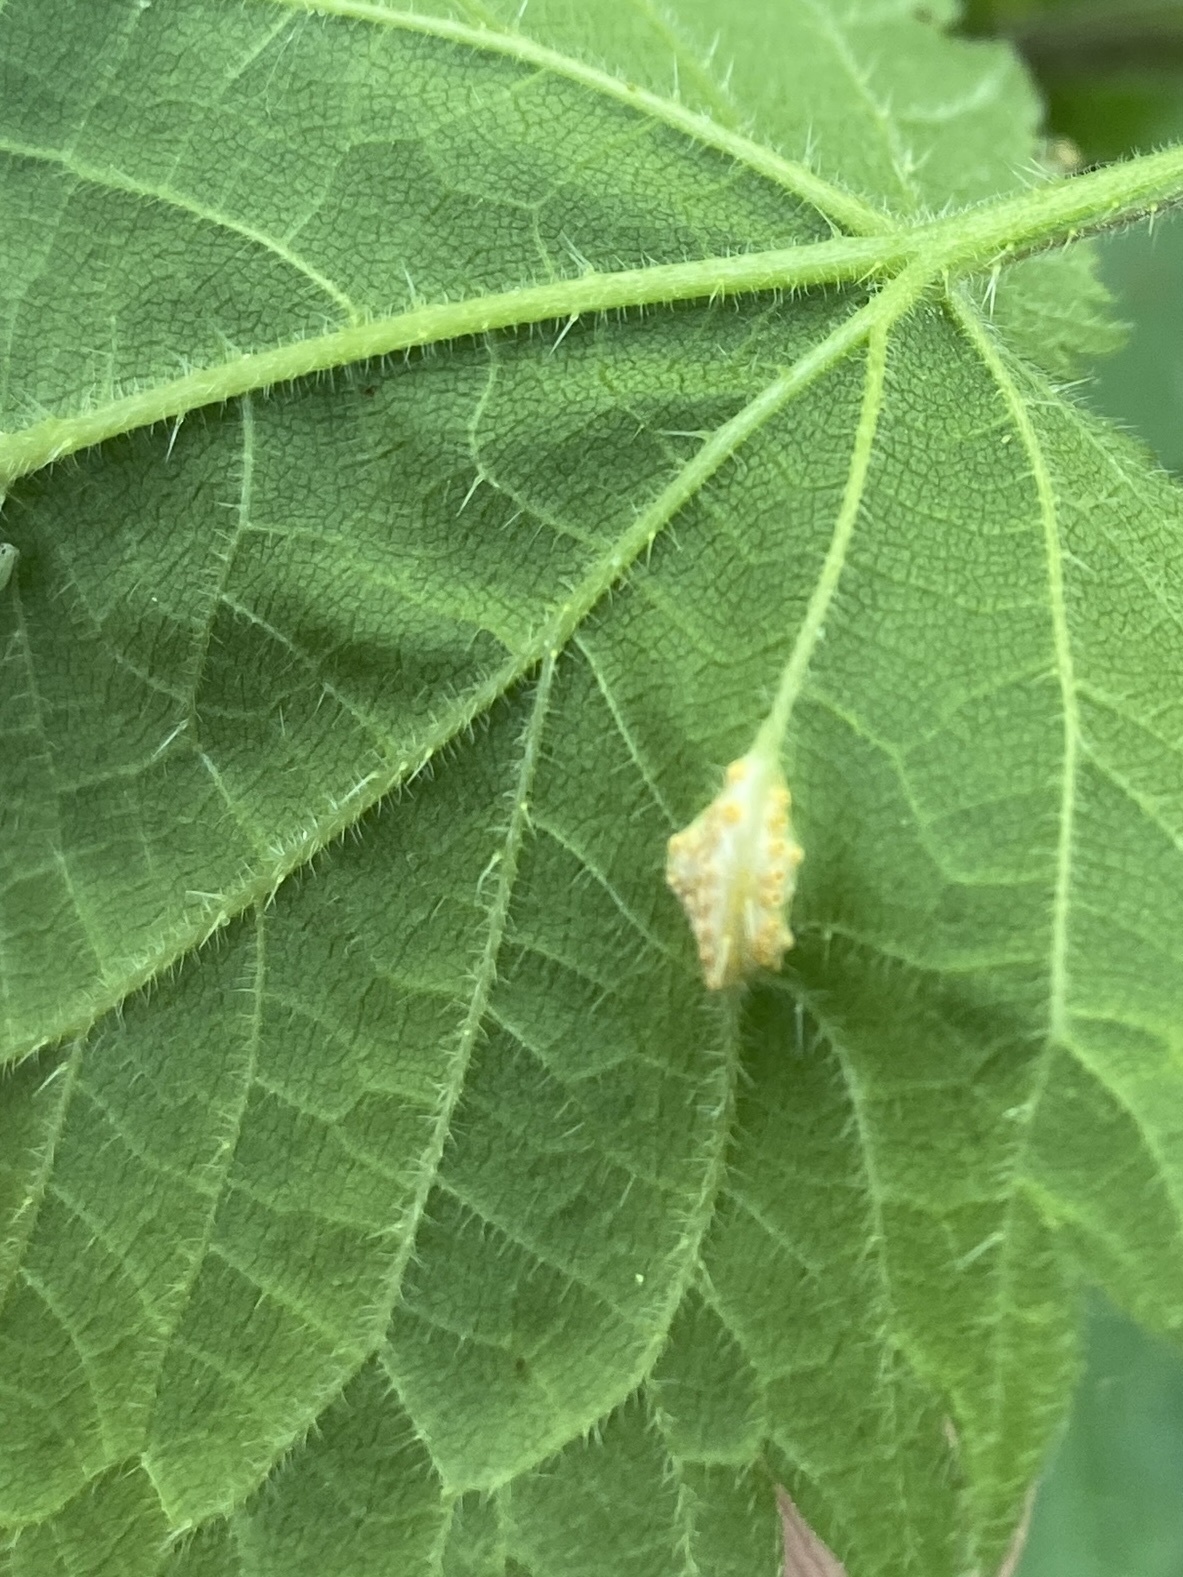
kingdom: Fungi
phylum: Basidiomycota
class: Pucciniomycetes
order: Pucciniales
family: Pucciniaceae
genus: Puccinia
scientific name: Puccinia urticata
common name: Nettle clustercup rust fungus
